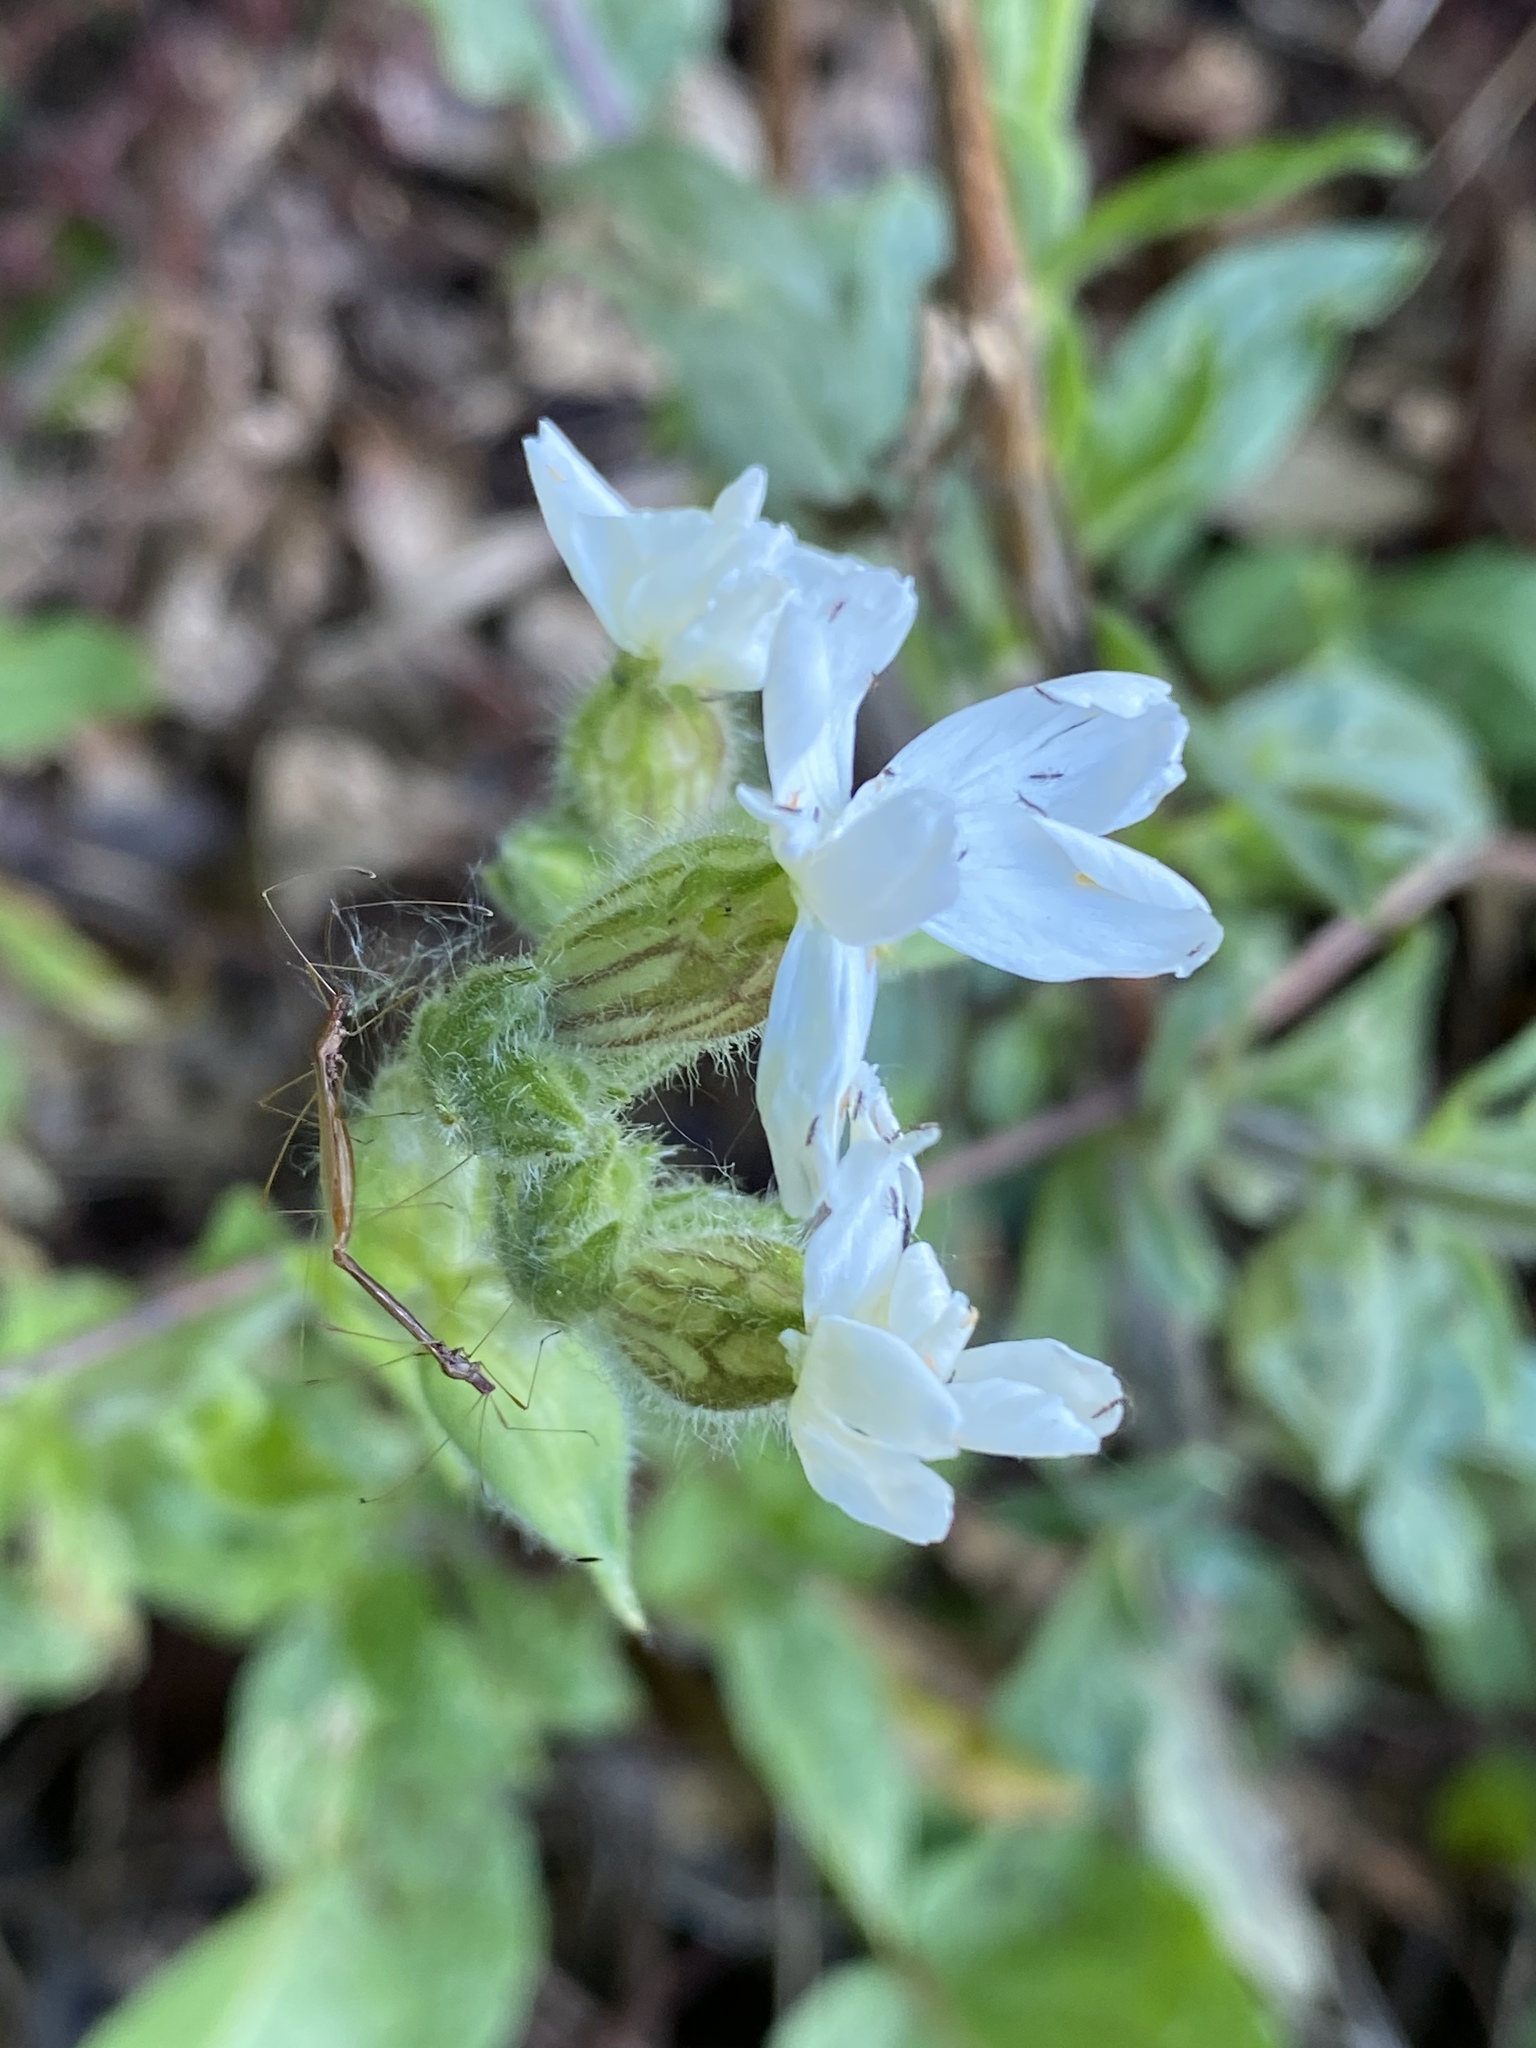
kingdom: Plantae
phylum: Tracheophyta
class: Magnoliopsida
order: Caryophyllales
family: Caryophyllaceae
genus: Silene
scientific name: Silene latifolia
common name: White campion
